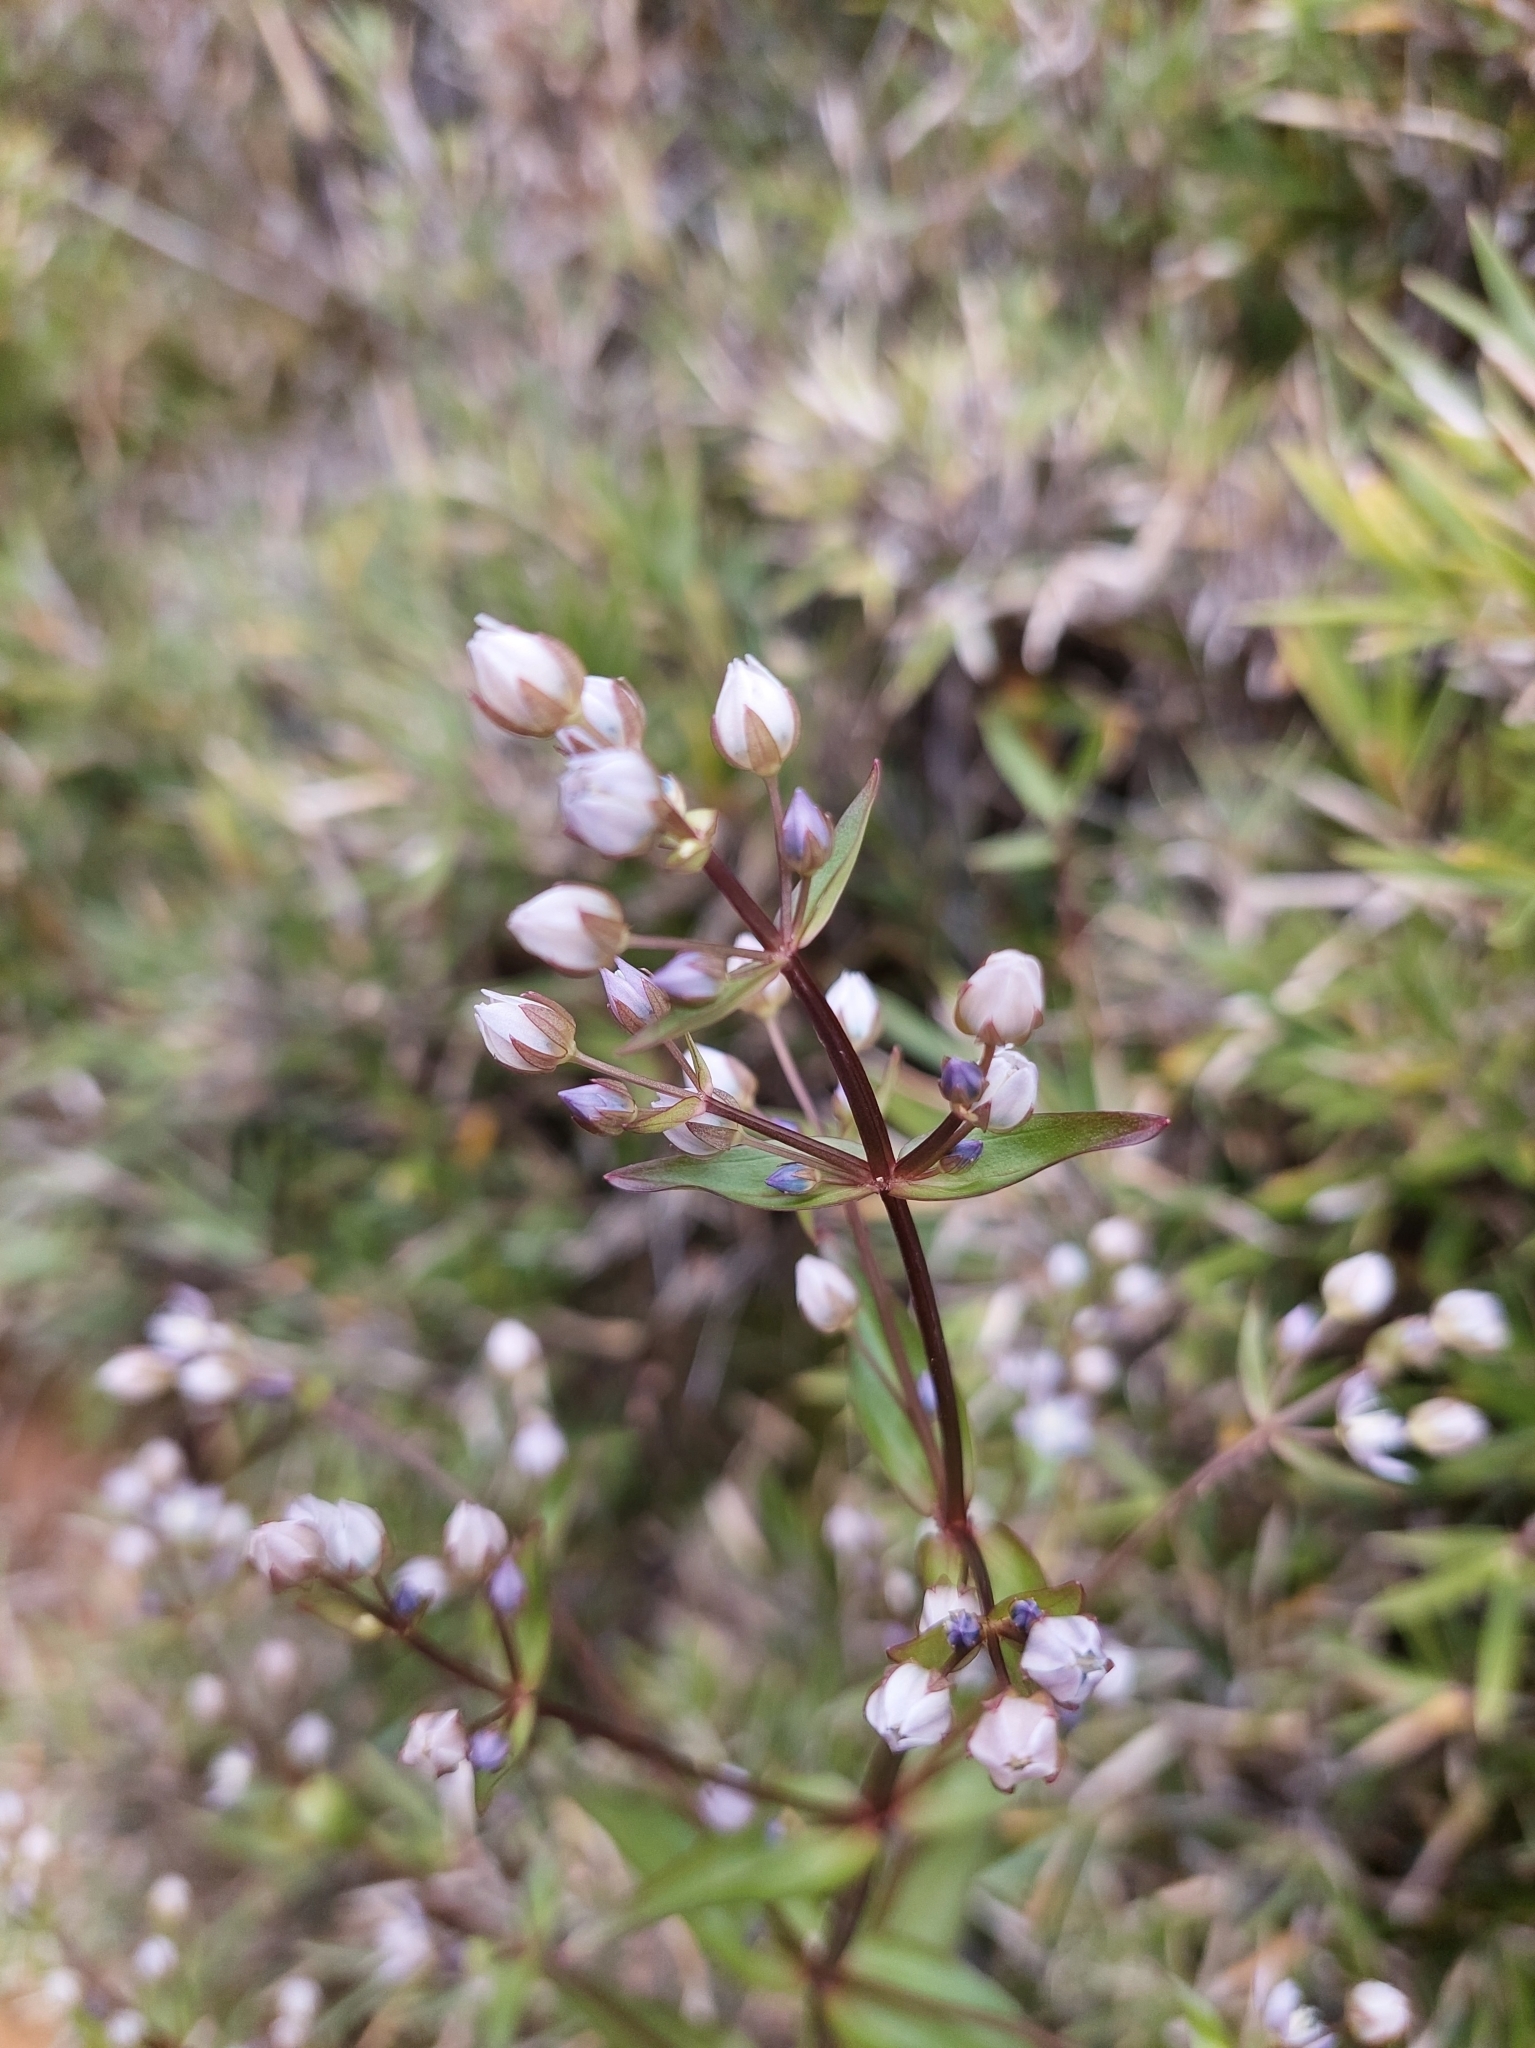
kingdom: Plantae
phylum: Tracheophyta
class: Magnoliopsida
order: Gentianales
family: Gentianaceae
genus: Swertia
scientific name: Swertia macrosperma
